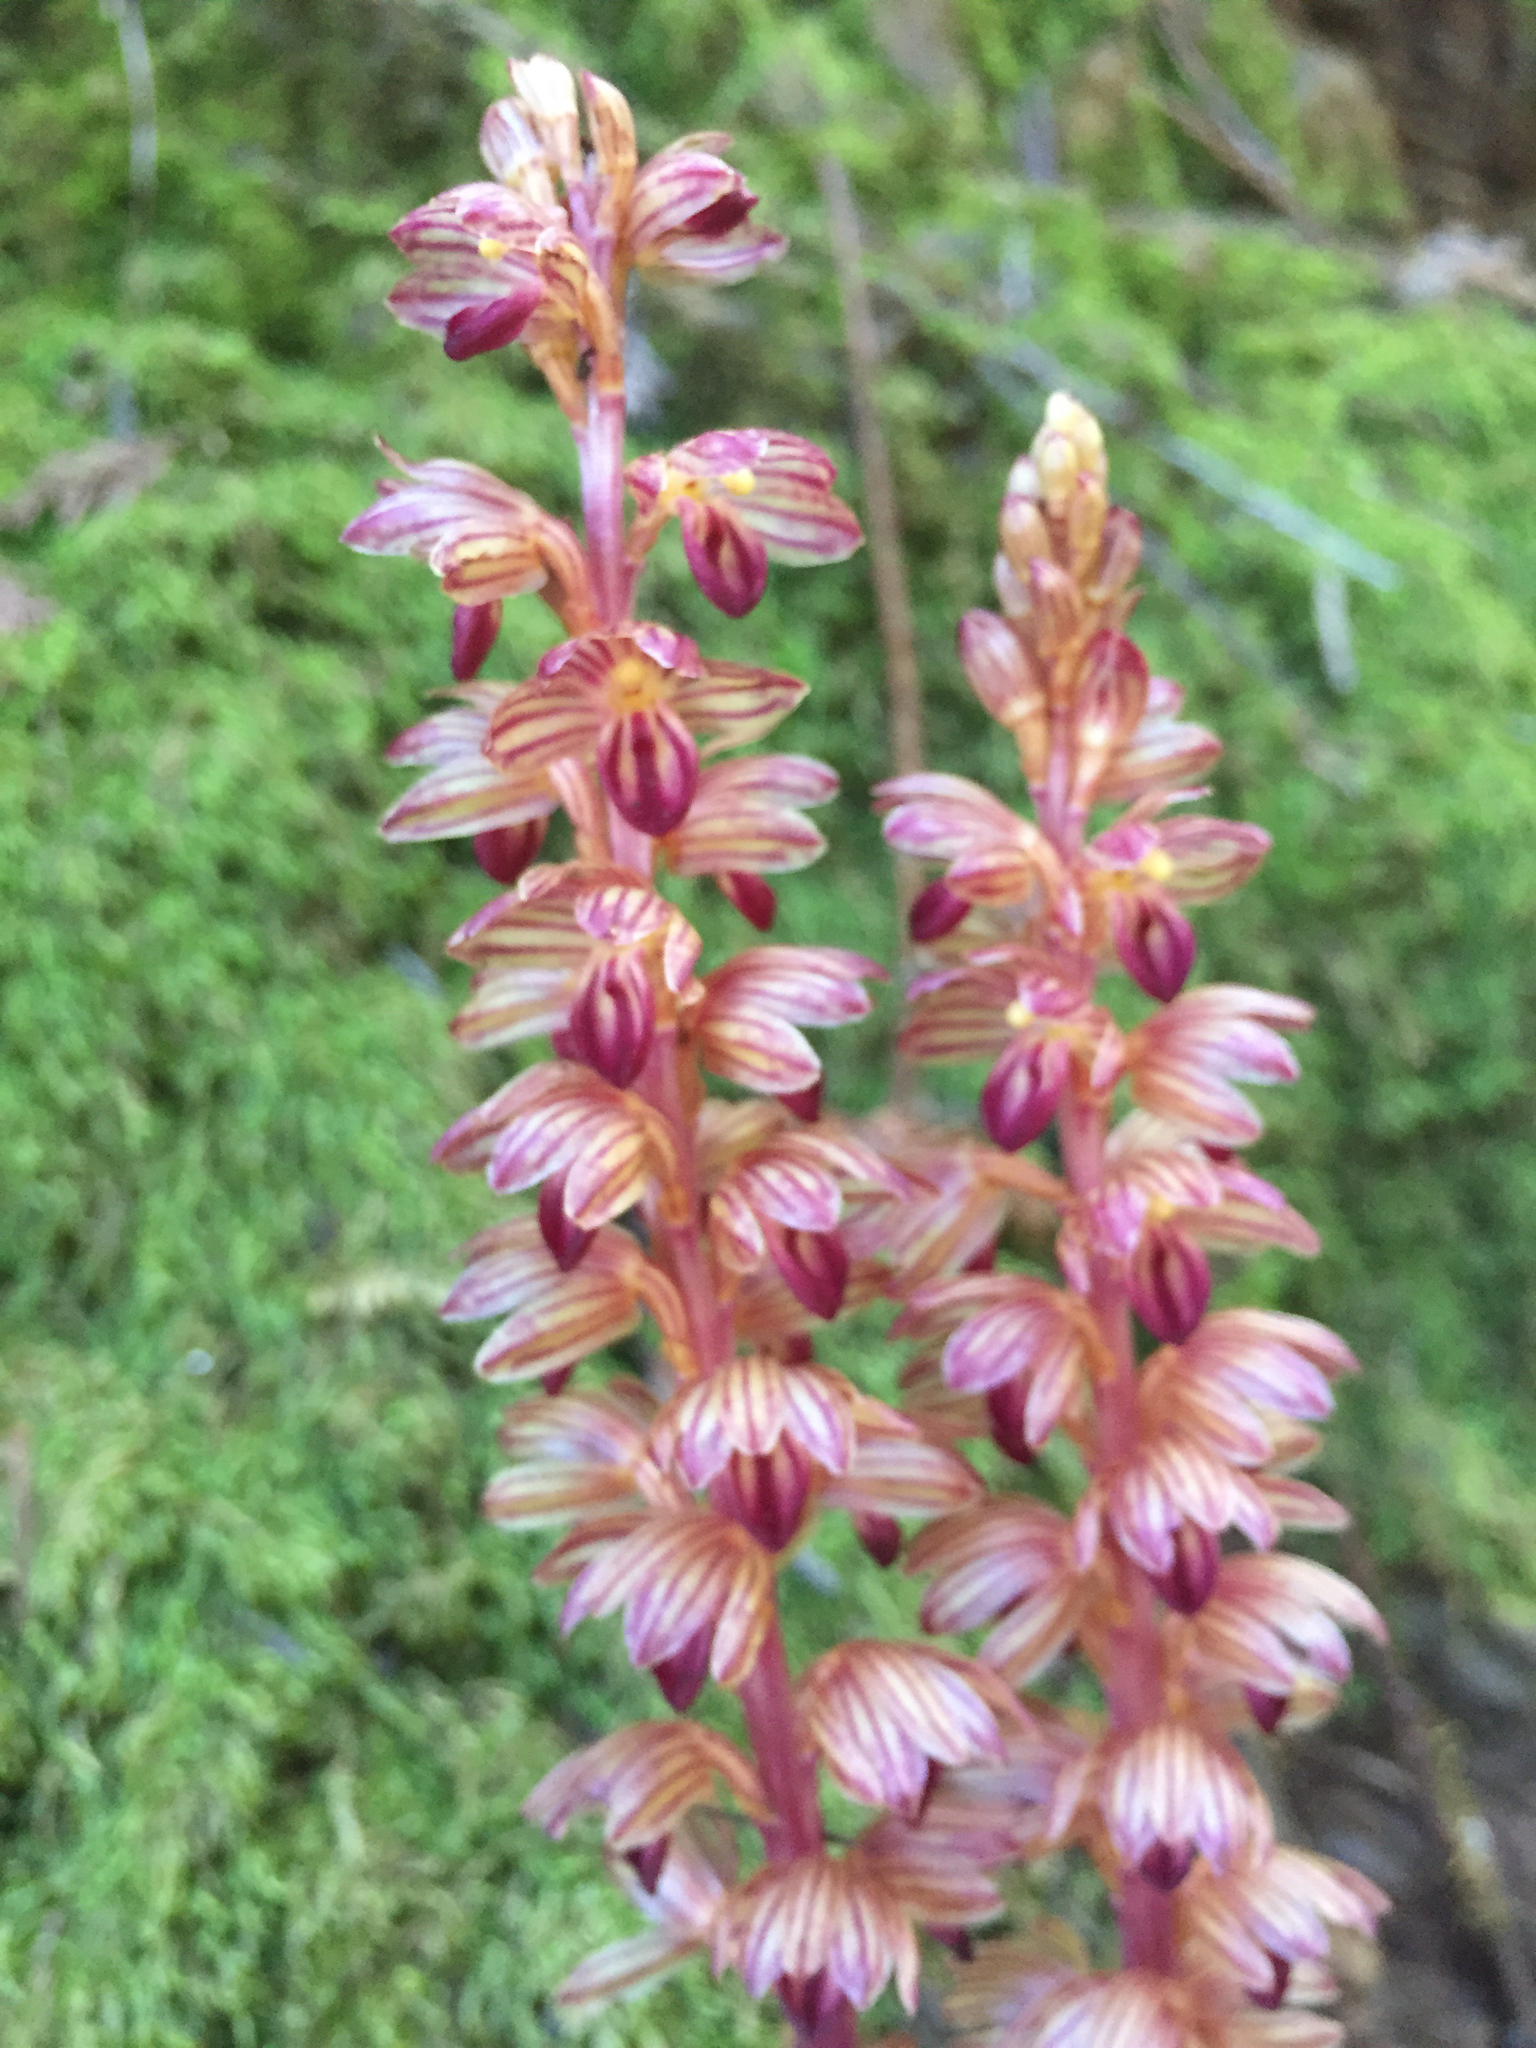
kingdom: Plantae
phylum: Tracheophyta
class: Liliopsida
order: Asparagales
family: Orchidaceae
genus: Corallorhiza
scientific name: Corallorhiza striata
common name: Hooded coralroot
